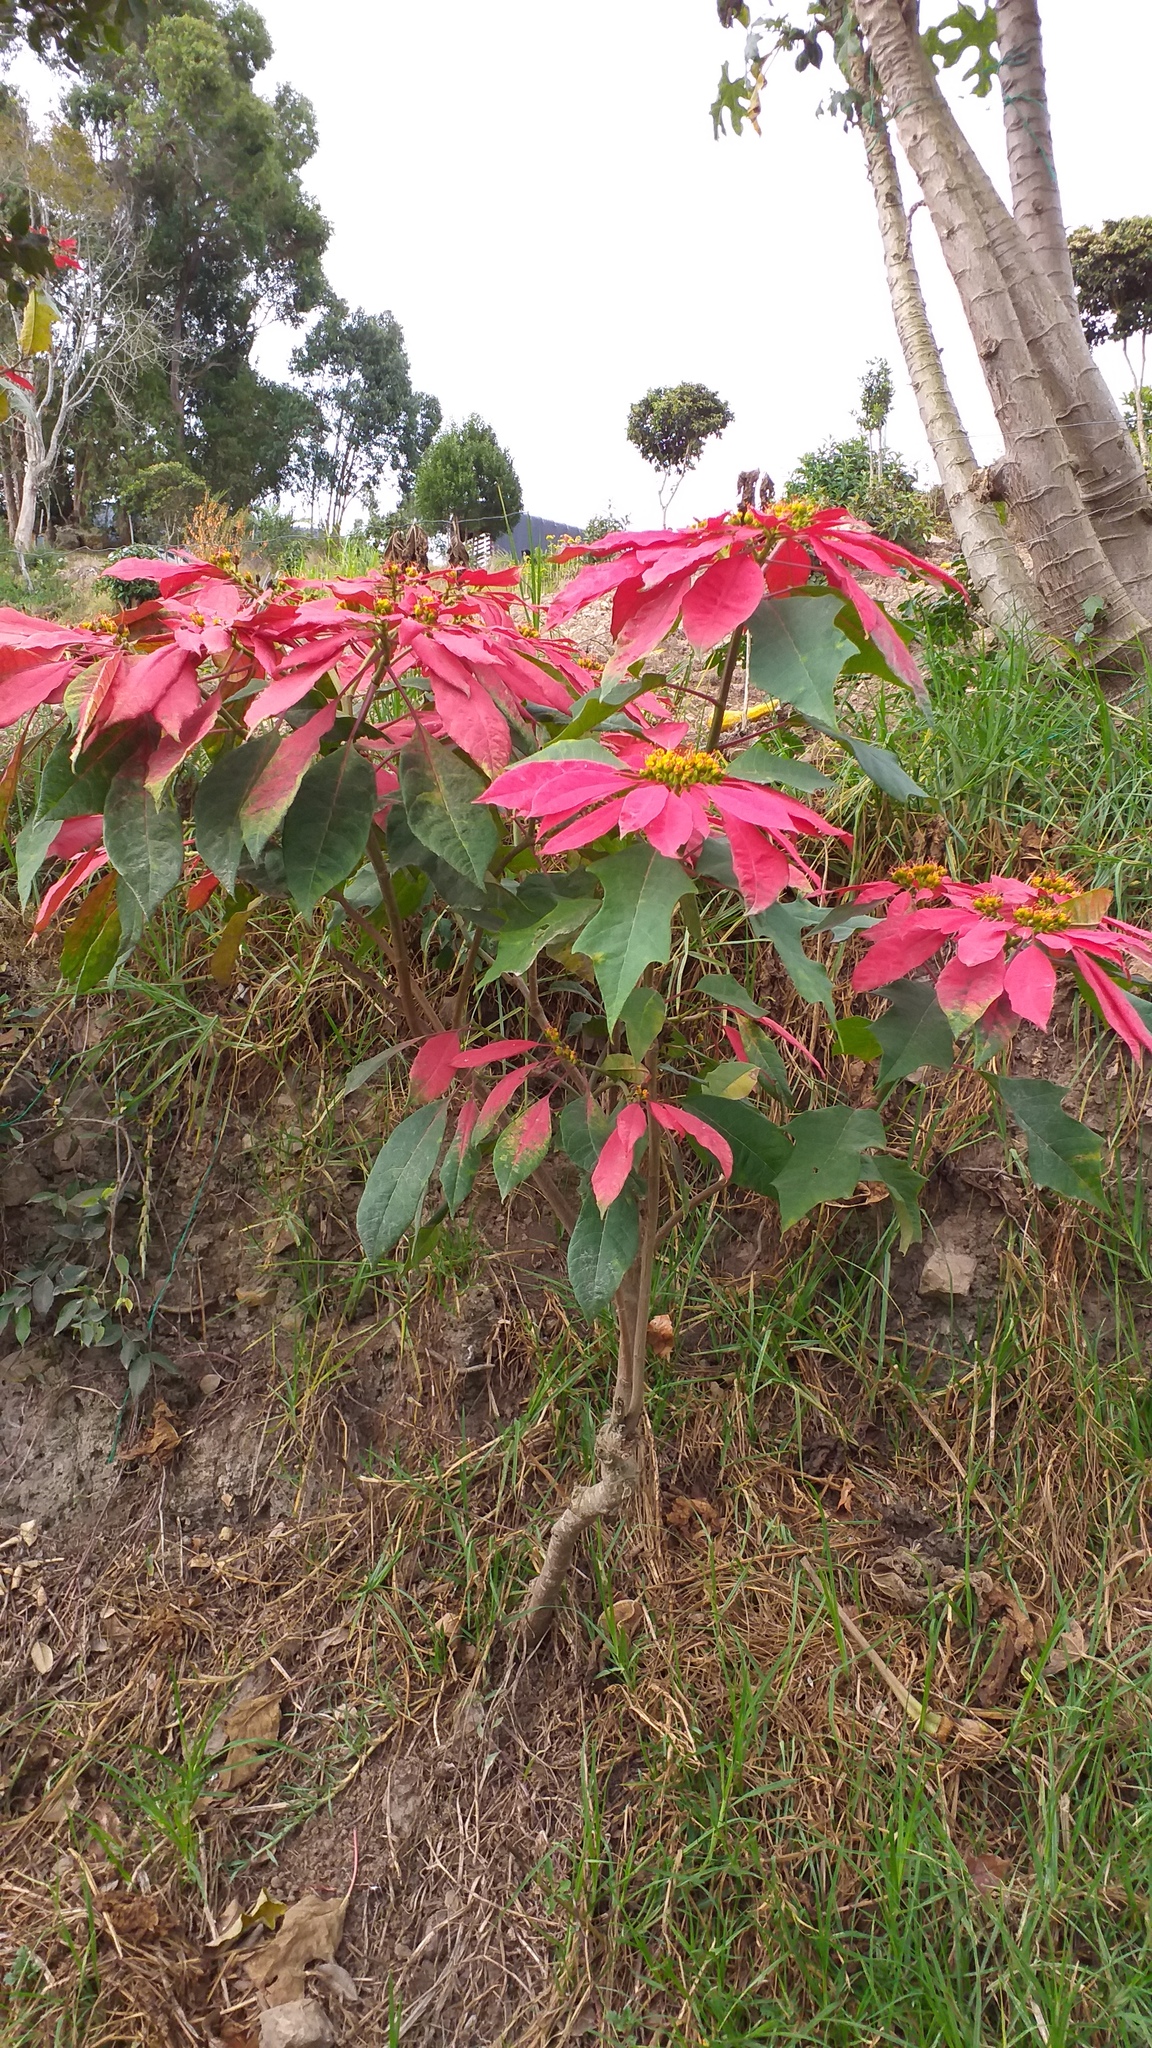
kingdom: Plantae
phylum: Tracheophyta
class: Magnoliopsida
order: Malpighiales
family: Euphorbiaceae
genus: Euphorbia
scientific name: Euphorbia pulcherrima
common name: Christmas-flower
